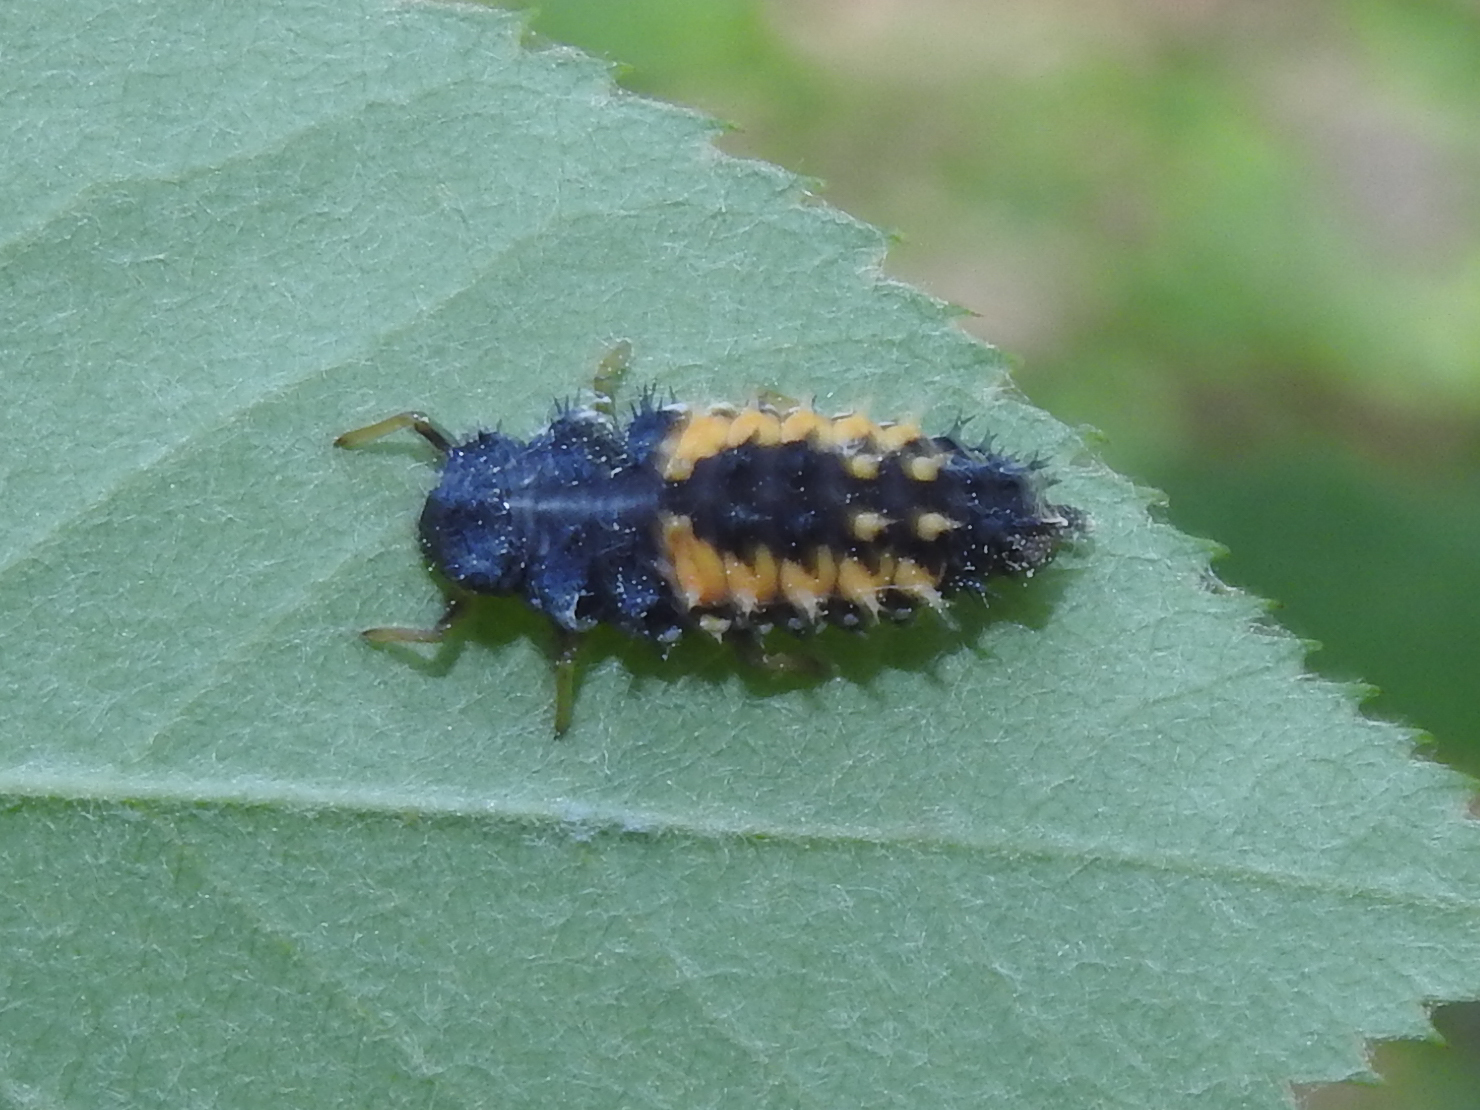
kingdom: Animalia
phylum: Arthropoda
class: Insecta
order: Coleoptera
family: Coccinellidae
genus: Harmonia
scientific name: Harmonia axyridis
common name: Harlequin ladybird
